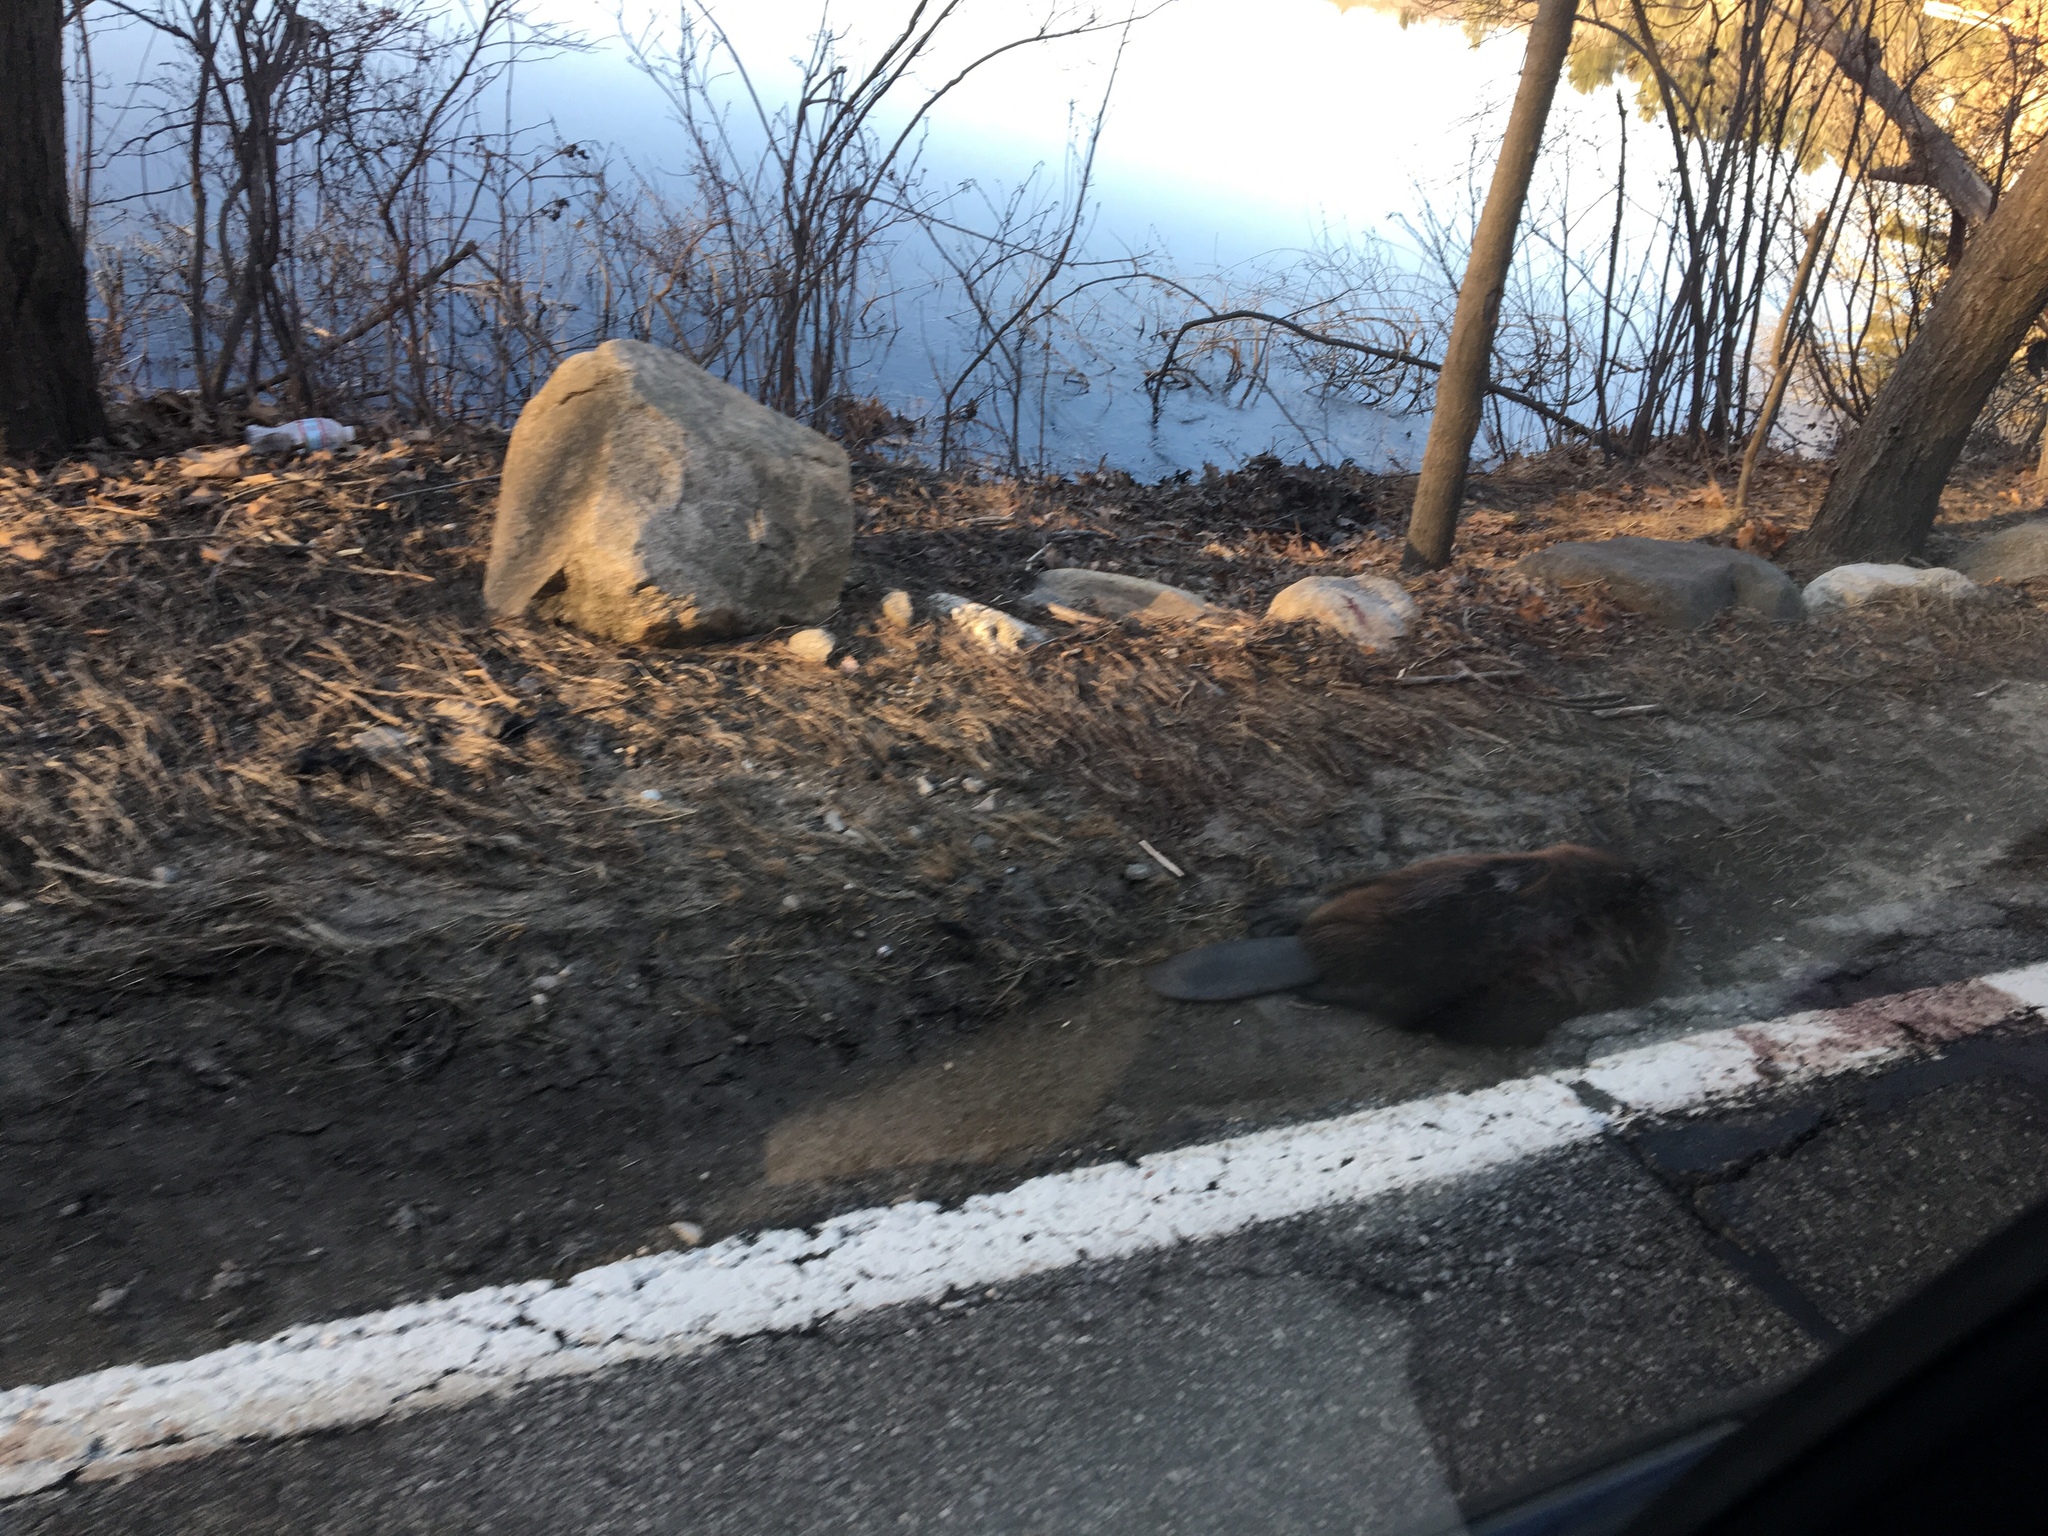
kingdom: Animalia
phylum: Chordata
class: Mammalia
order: Rodentia
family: Castoridae
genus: Castor
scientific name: Castor canadensis
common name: American beaver
